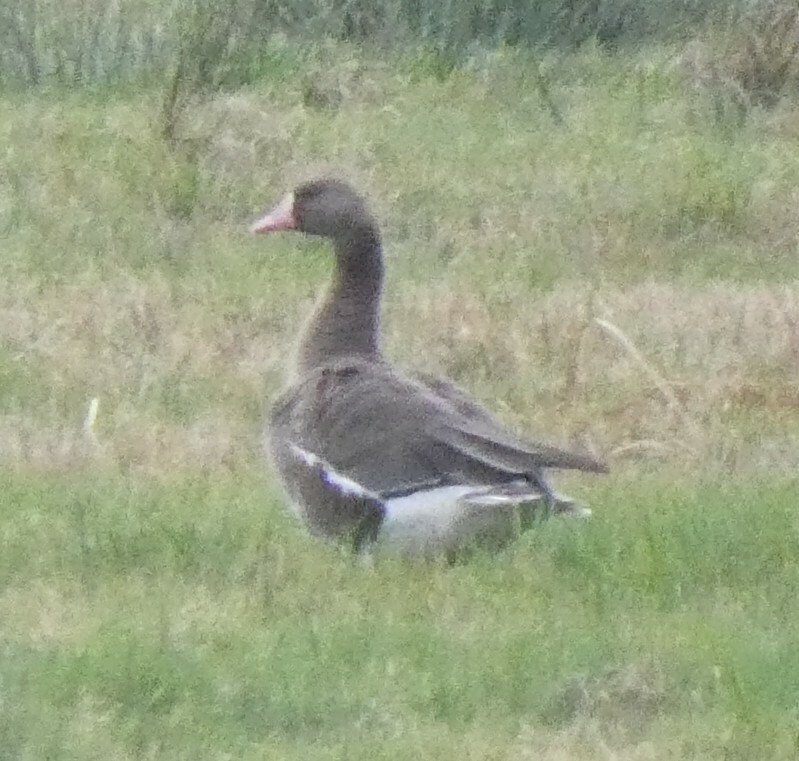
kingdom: Animalia
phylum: Chordata
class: Aves
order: Anseriformes
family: Anatidae
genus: Anser
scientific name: Anser albifrons
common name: Greater white-fronted goose
